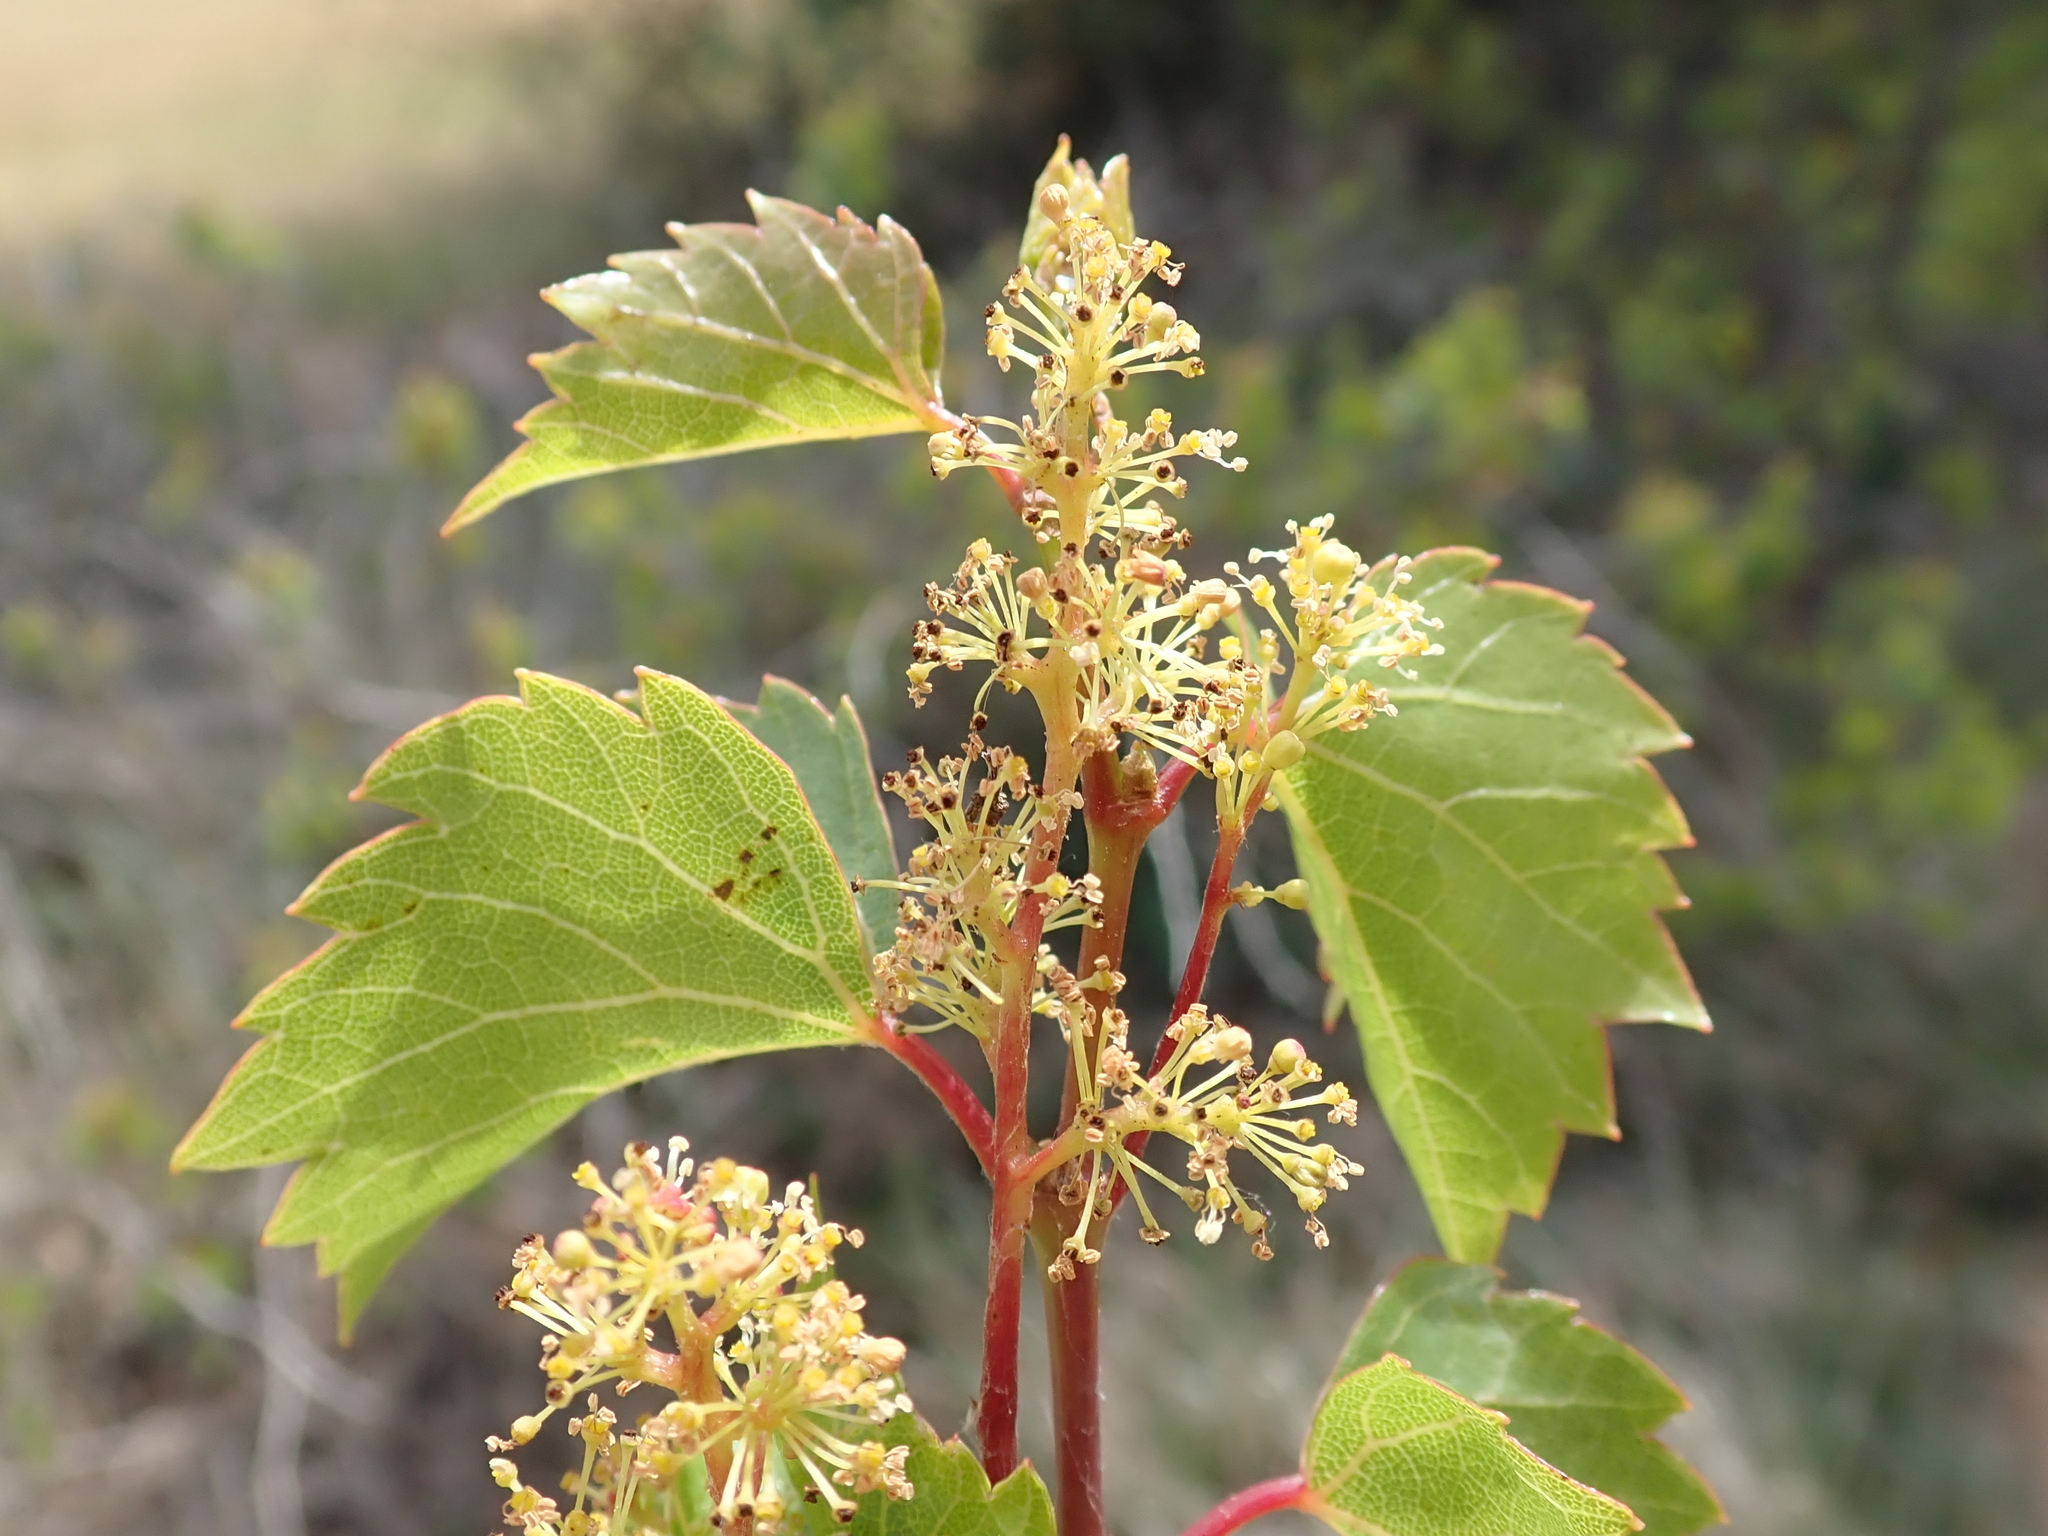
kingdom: Plantae
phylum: Tracheophyta
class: Magnoliopsida
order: Vitales
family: Vitaceae
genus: Vitis
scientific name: Vitis vinifera
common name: Grape-vine
